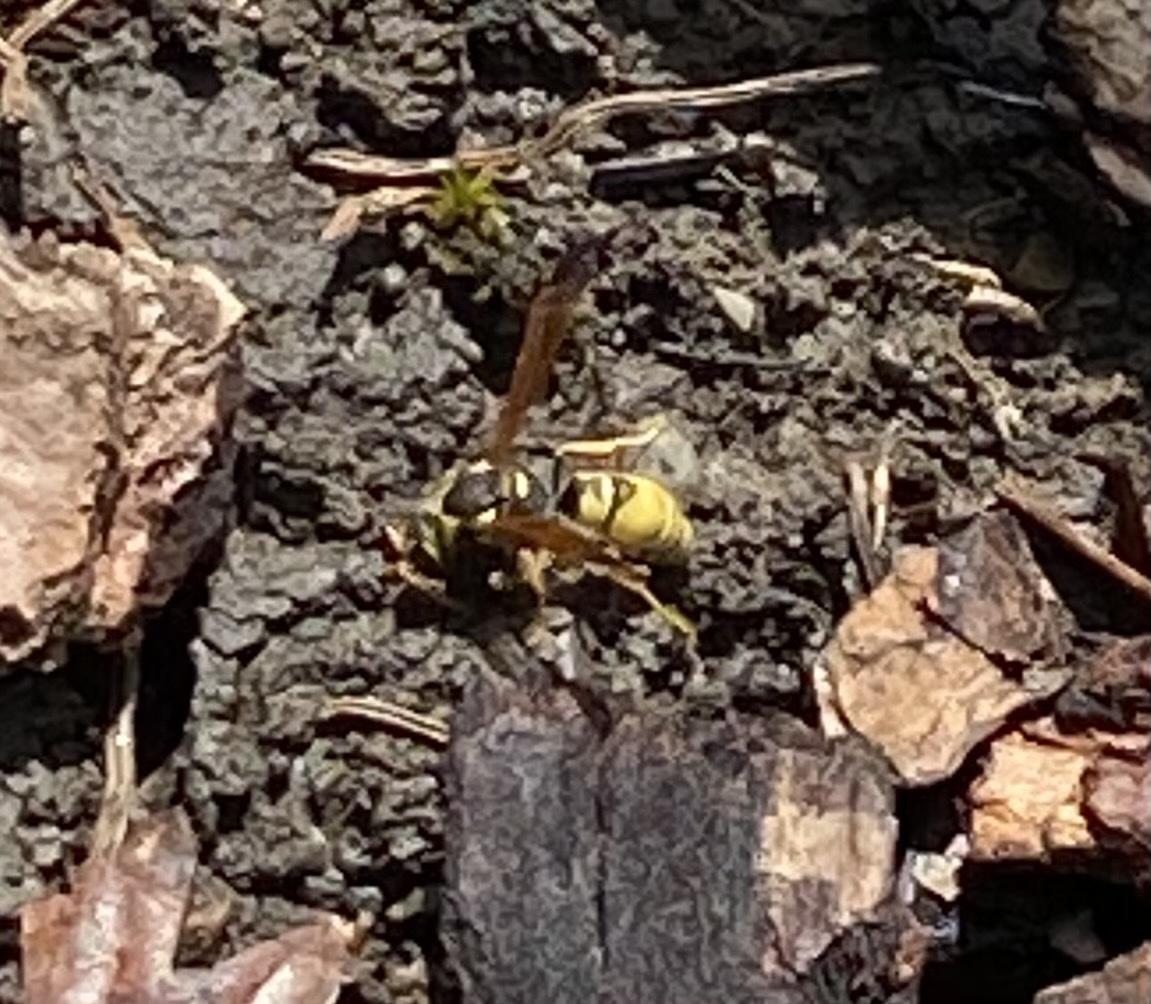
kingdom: Animalia
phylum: Arthropoda
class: Insecta
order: Hymenoptera
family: Vespidae
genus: Ancistrocerus
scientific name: Ancistrocerus
